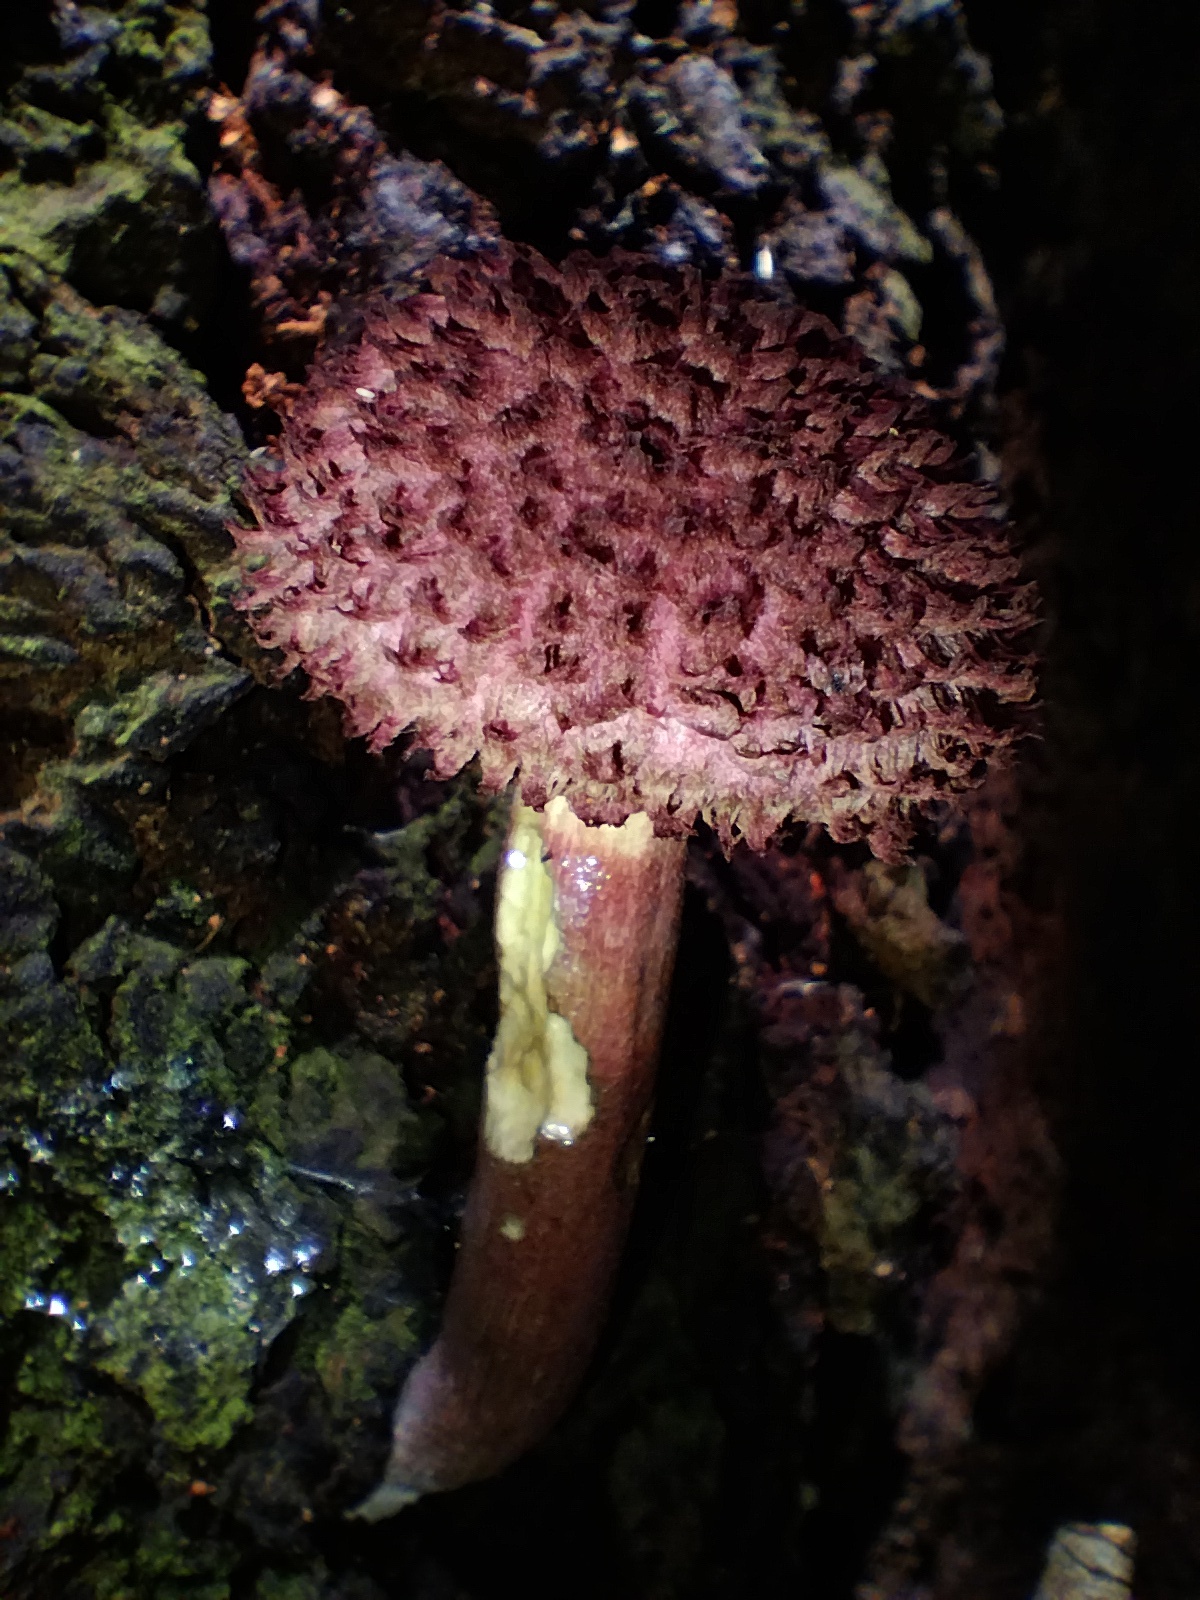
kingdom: Fungi
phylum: Basidiomycota
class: Agaricomycetes
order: Boletales
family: Boletaceae
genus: Boletellus
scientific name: Boletellus emodensis
